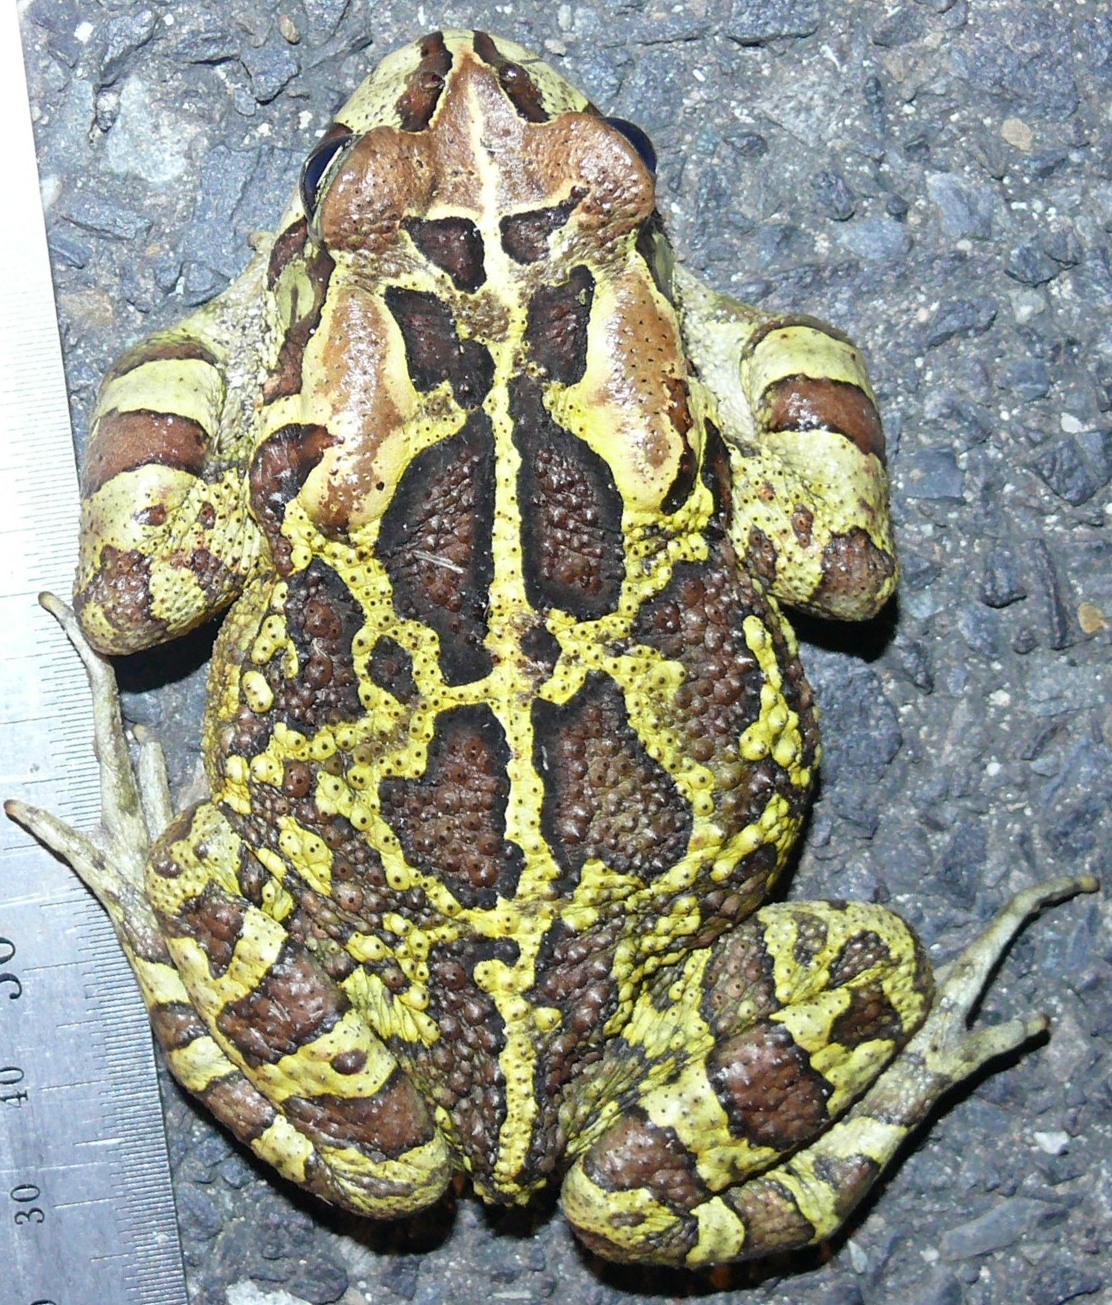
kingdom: Animalia
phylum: Chordata
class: Amphibia
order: Anura
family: Bufonidae
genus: Sclerophrys
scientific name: Sclerophrys pantherina
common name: Panther toad
